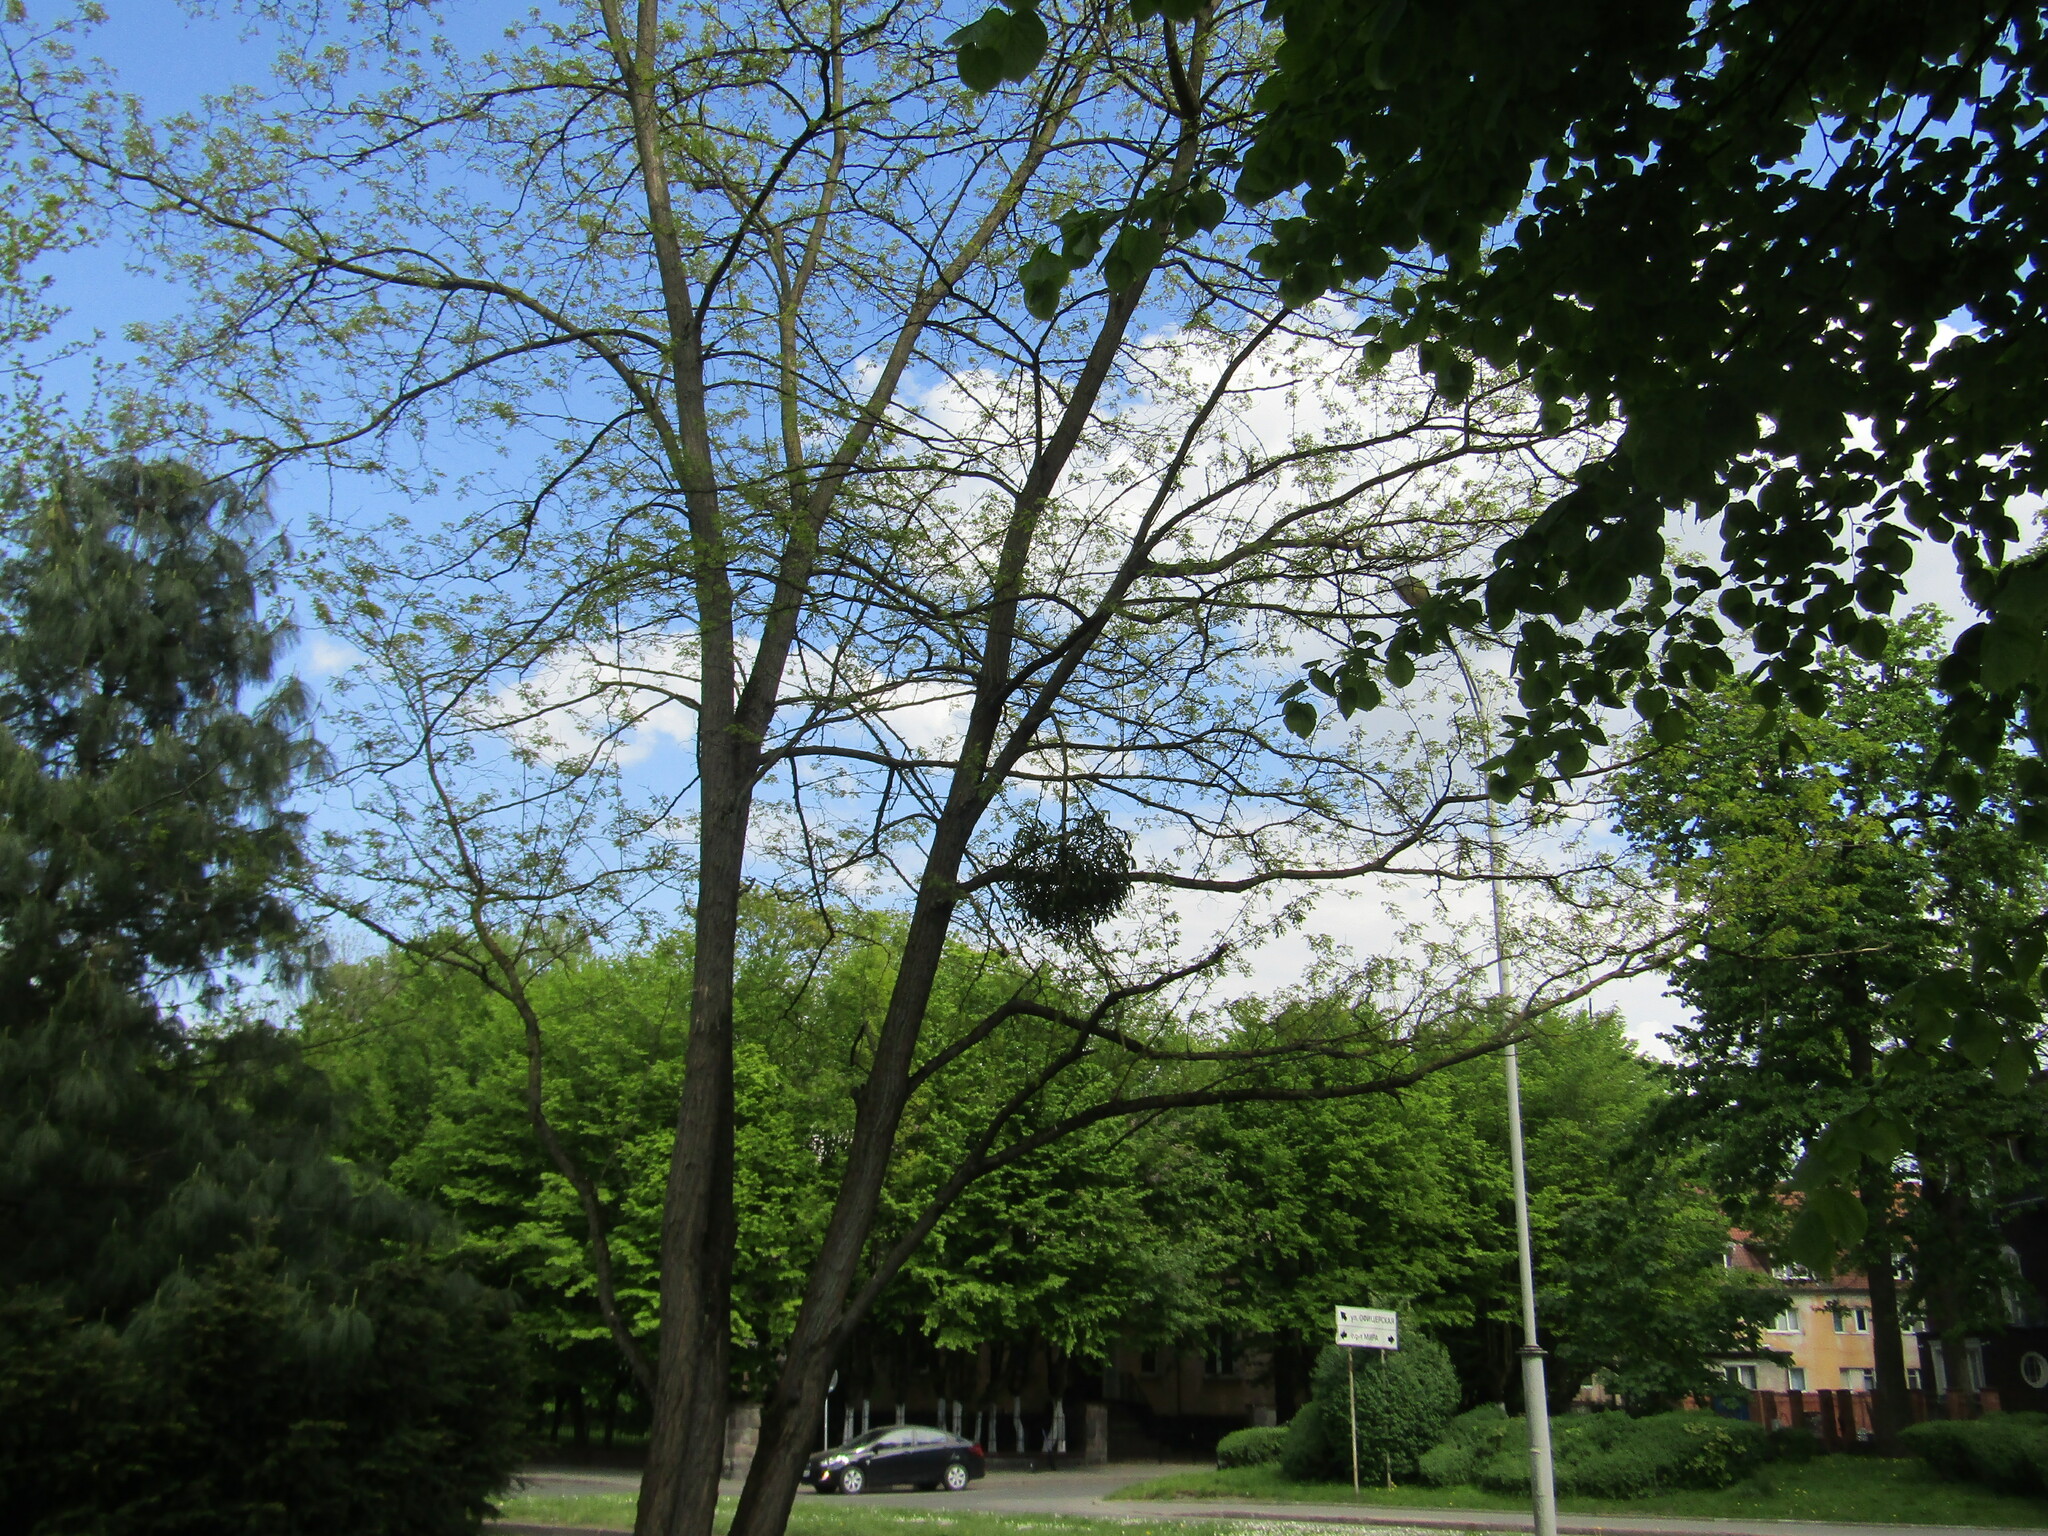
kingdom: Plantae
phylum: Tracheophyta
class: Magnoliopsida
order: Santalales
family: Viscaceae
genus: Viscum
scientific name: Viscum album
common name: Mistletoe
